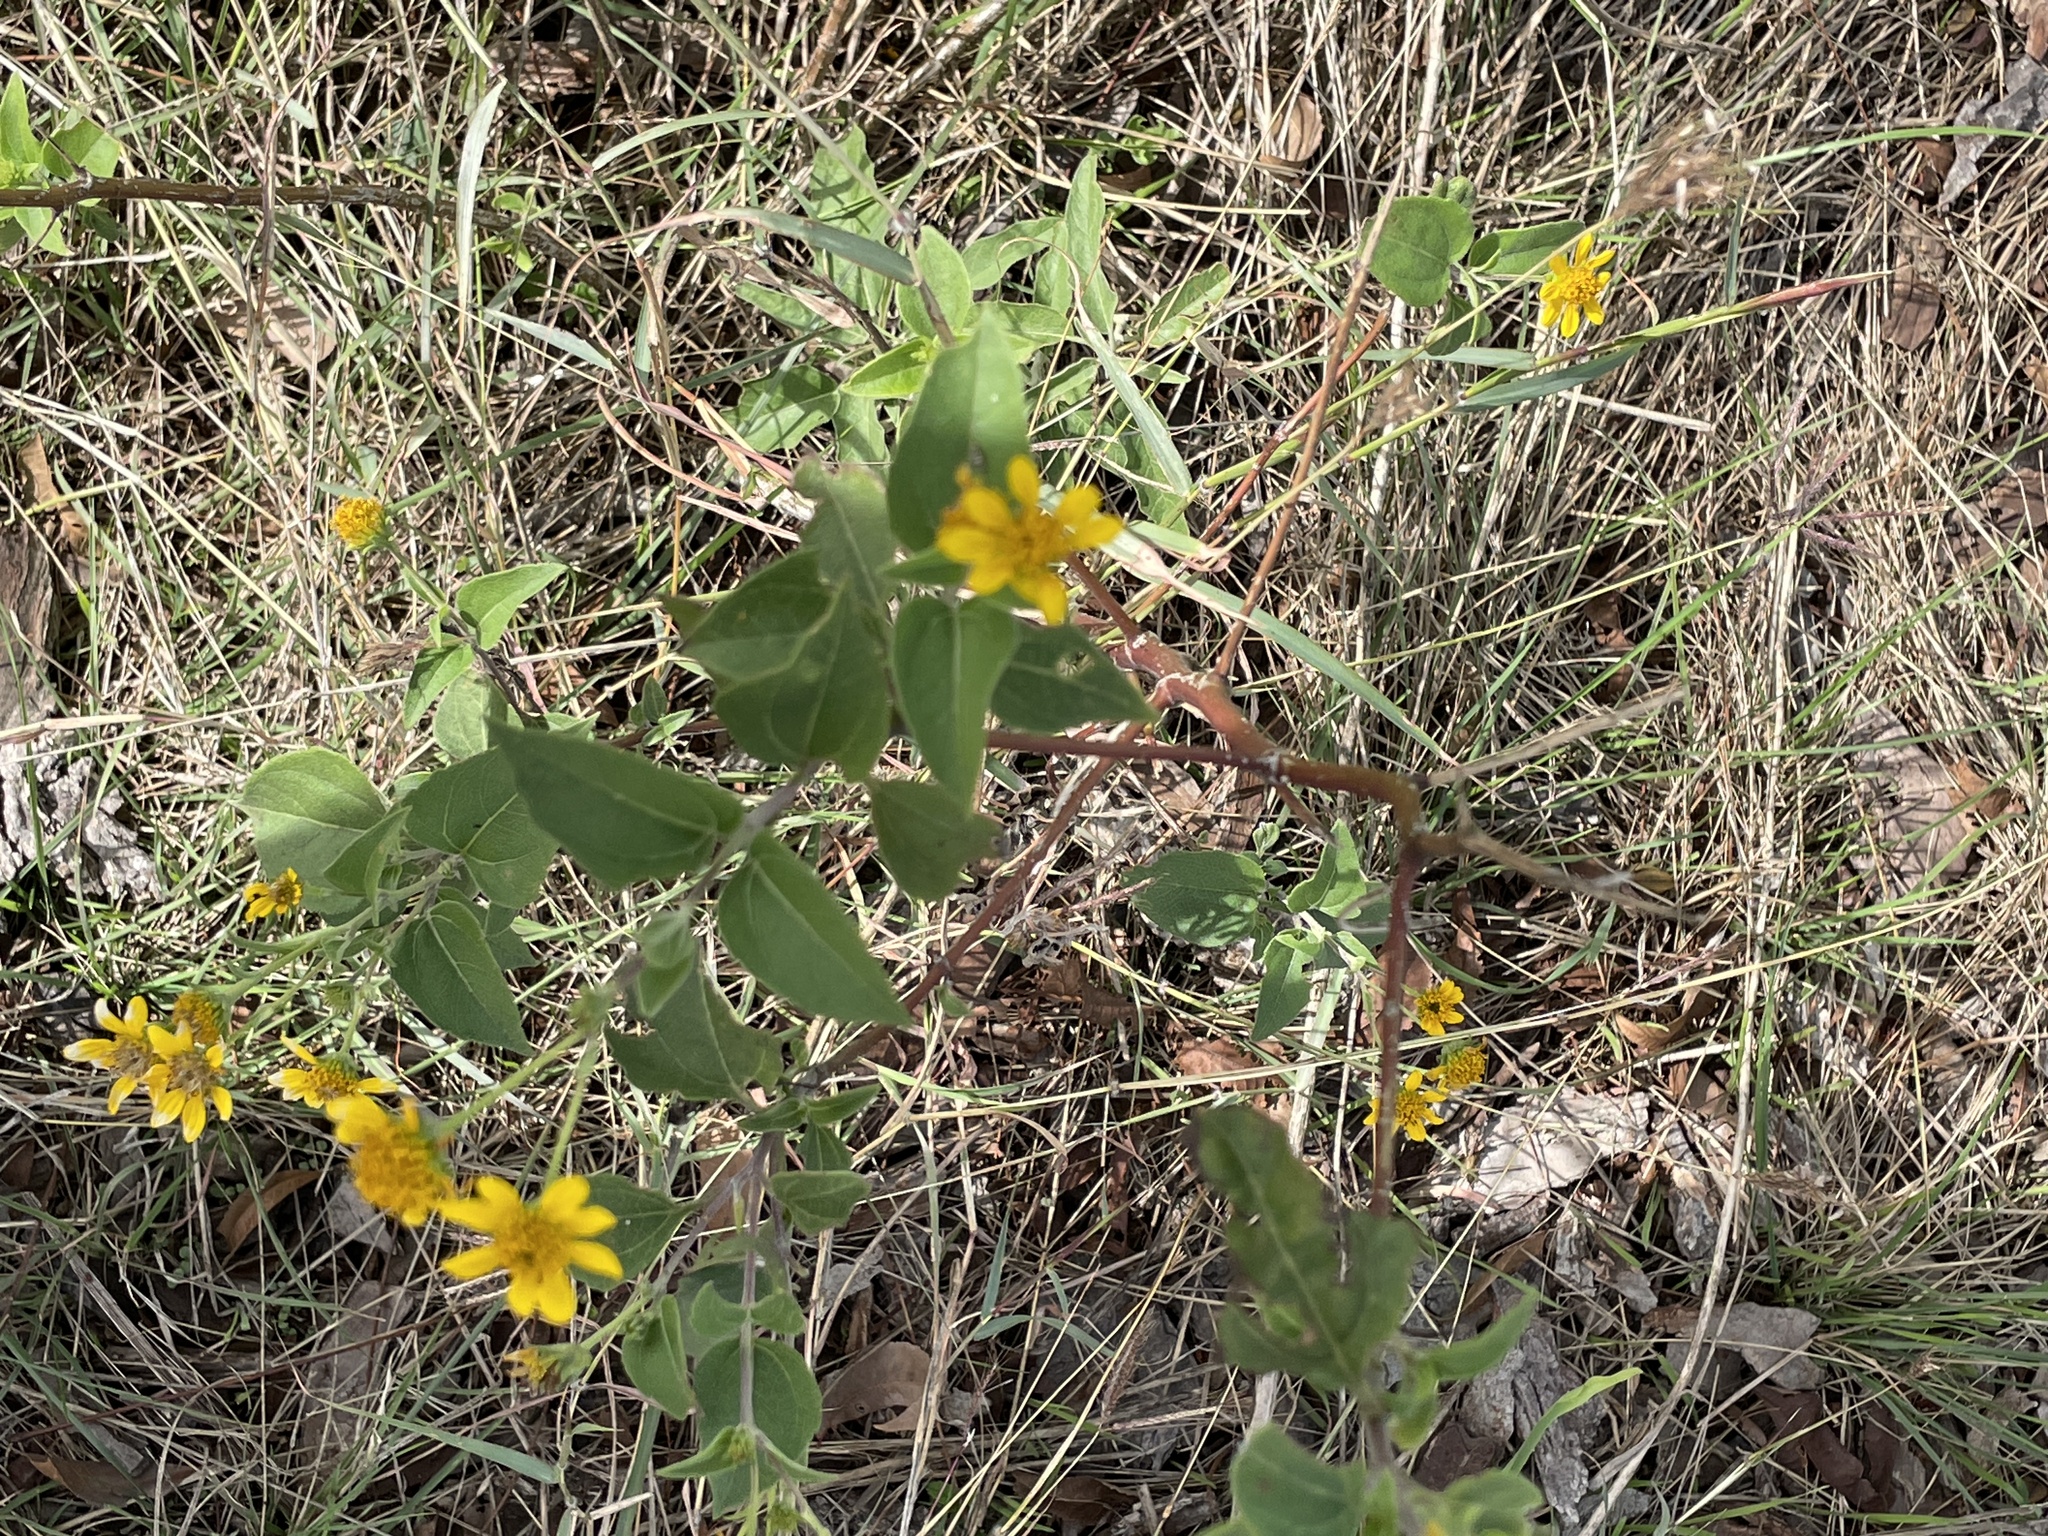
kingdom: Plantae
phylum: Tracheophyta
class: Magnoliopsida
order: Asterales
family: Asteraceae
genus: Viguiera
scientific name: Viguiera dentata
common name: Toothleaf
